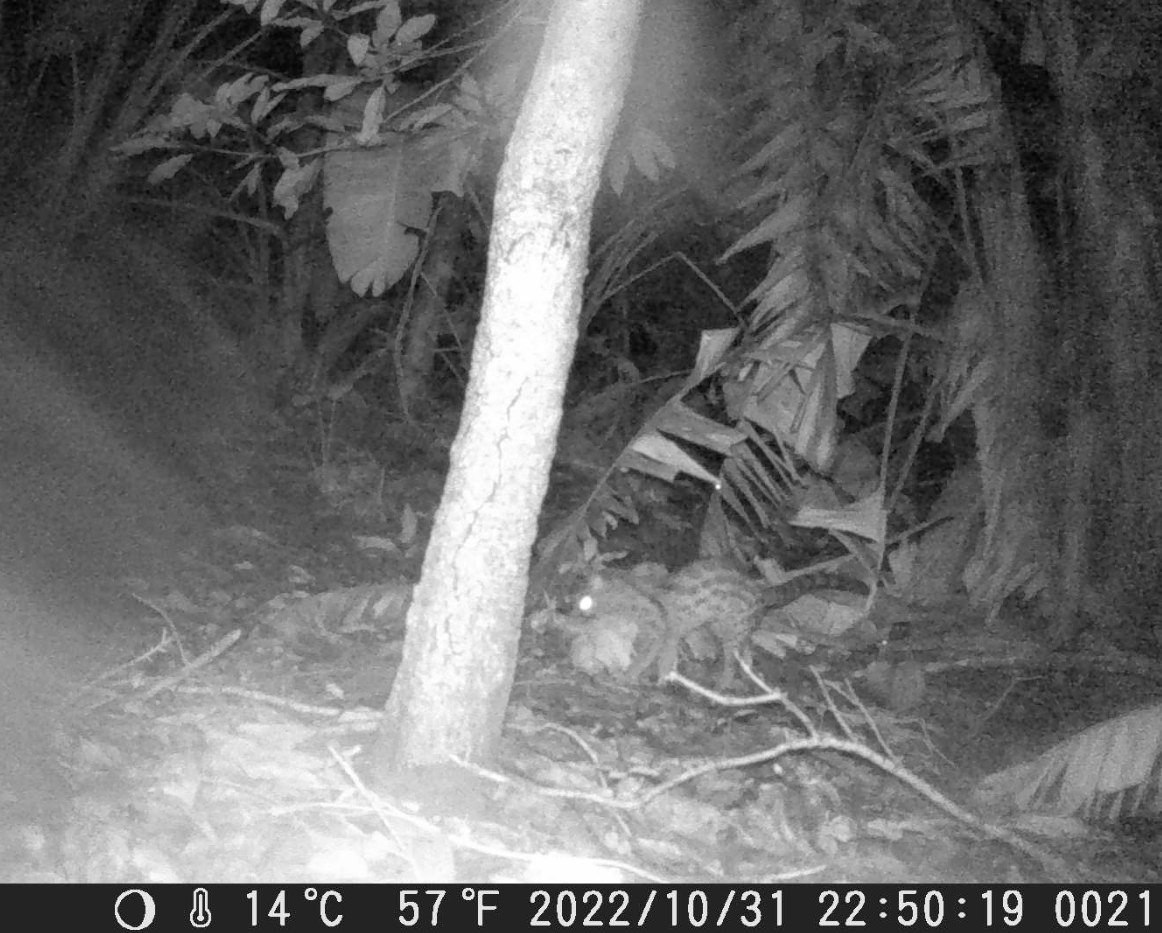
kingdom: Animalia
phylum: Chordata
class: Mammalia
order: Carnivora
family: Viverridae
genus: Genetta
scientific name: Genetta maculata
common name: Rusty-spotted genet
